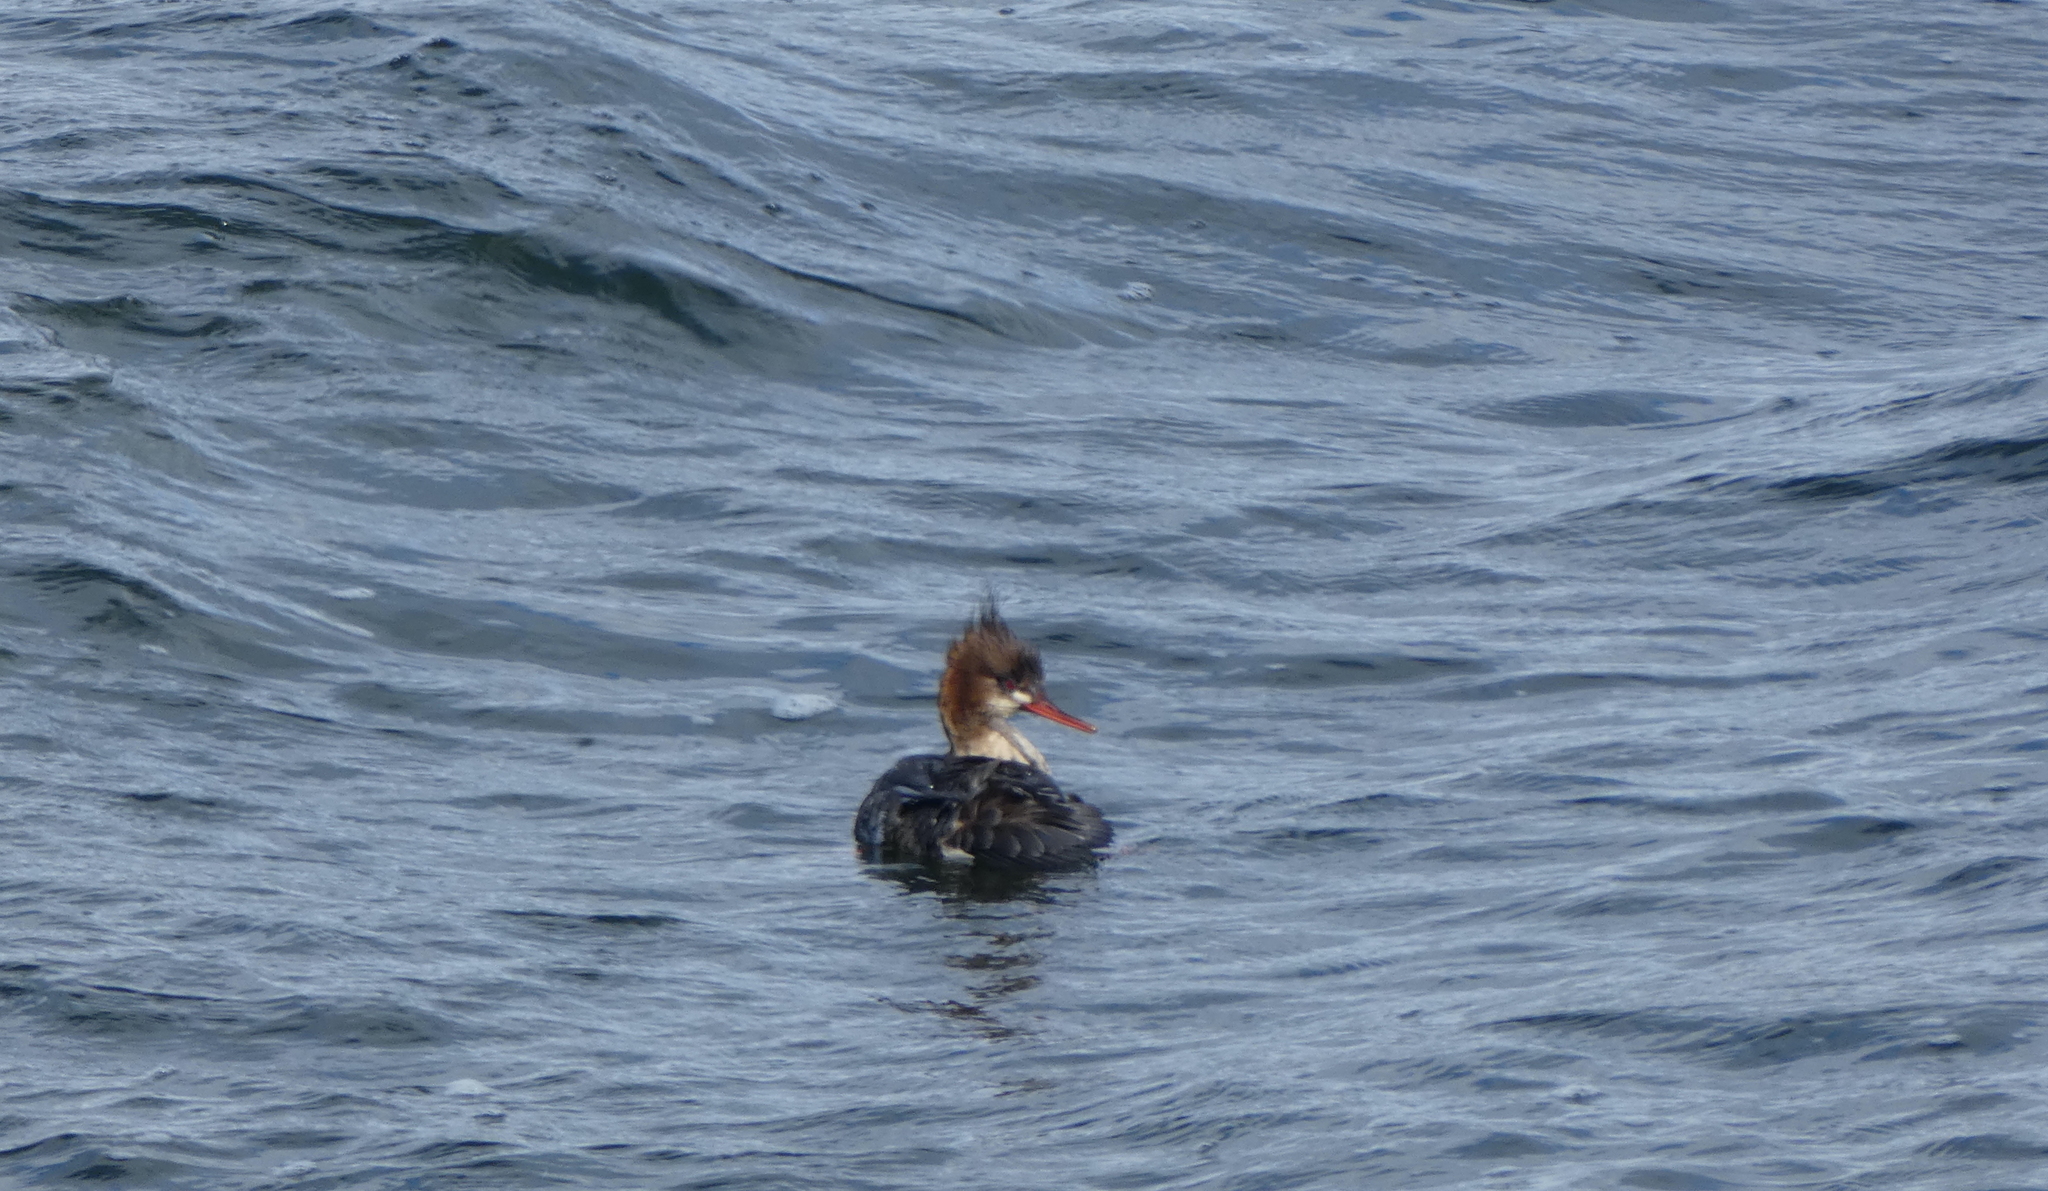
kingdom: Animalia
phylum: Chordata
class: Aves
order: Anseriformes
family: Anatidae
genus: Mergus
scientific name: Mergus serrator
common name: Red-breasted merganser
